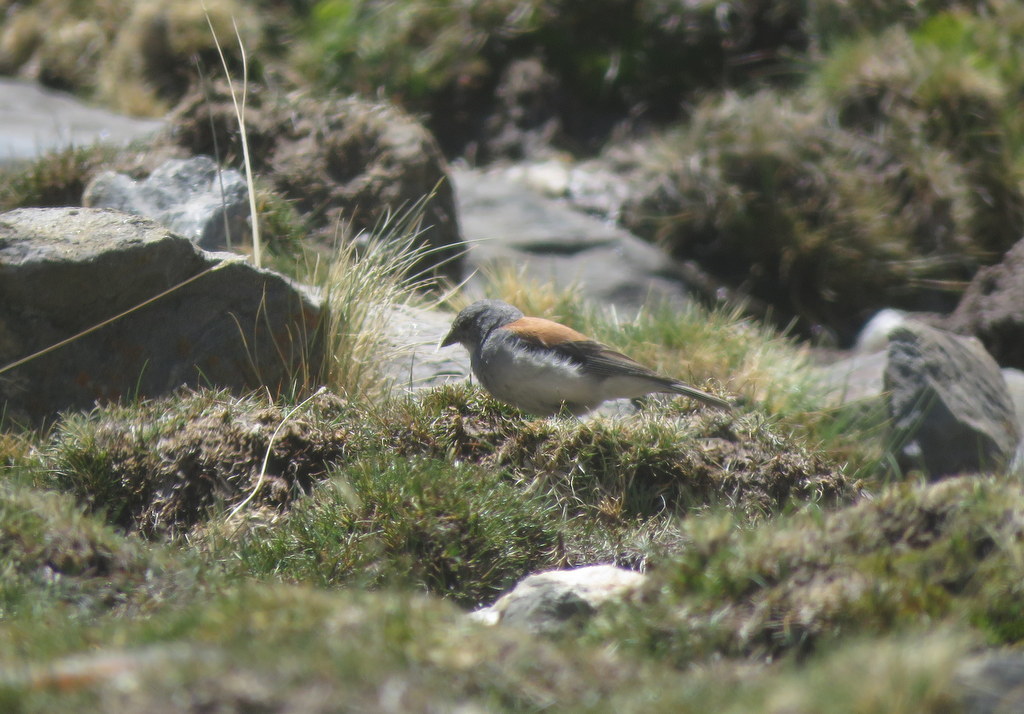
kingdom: Animalia
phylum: Chordata
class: Aves
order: Passeriformes
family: Thraupidae
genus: Idiopsar
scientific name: Idiopsar dorsalis
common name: Red-backed sierra finch
